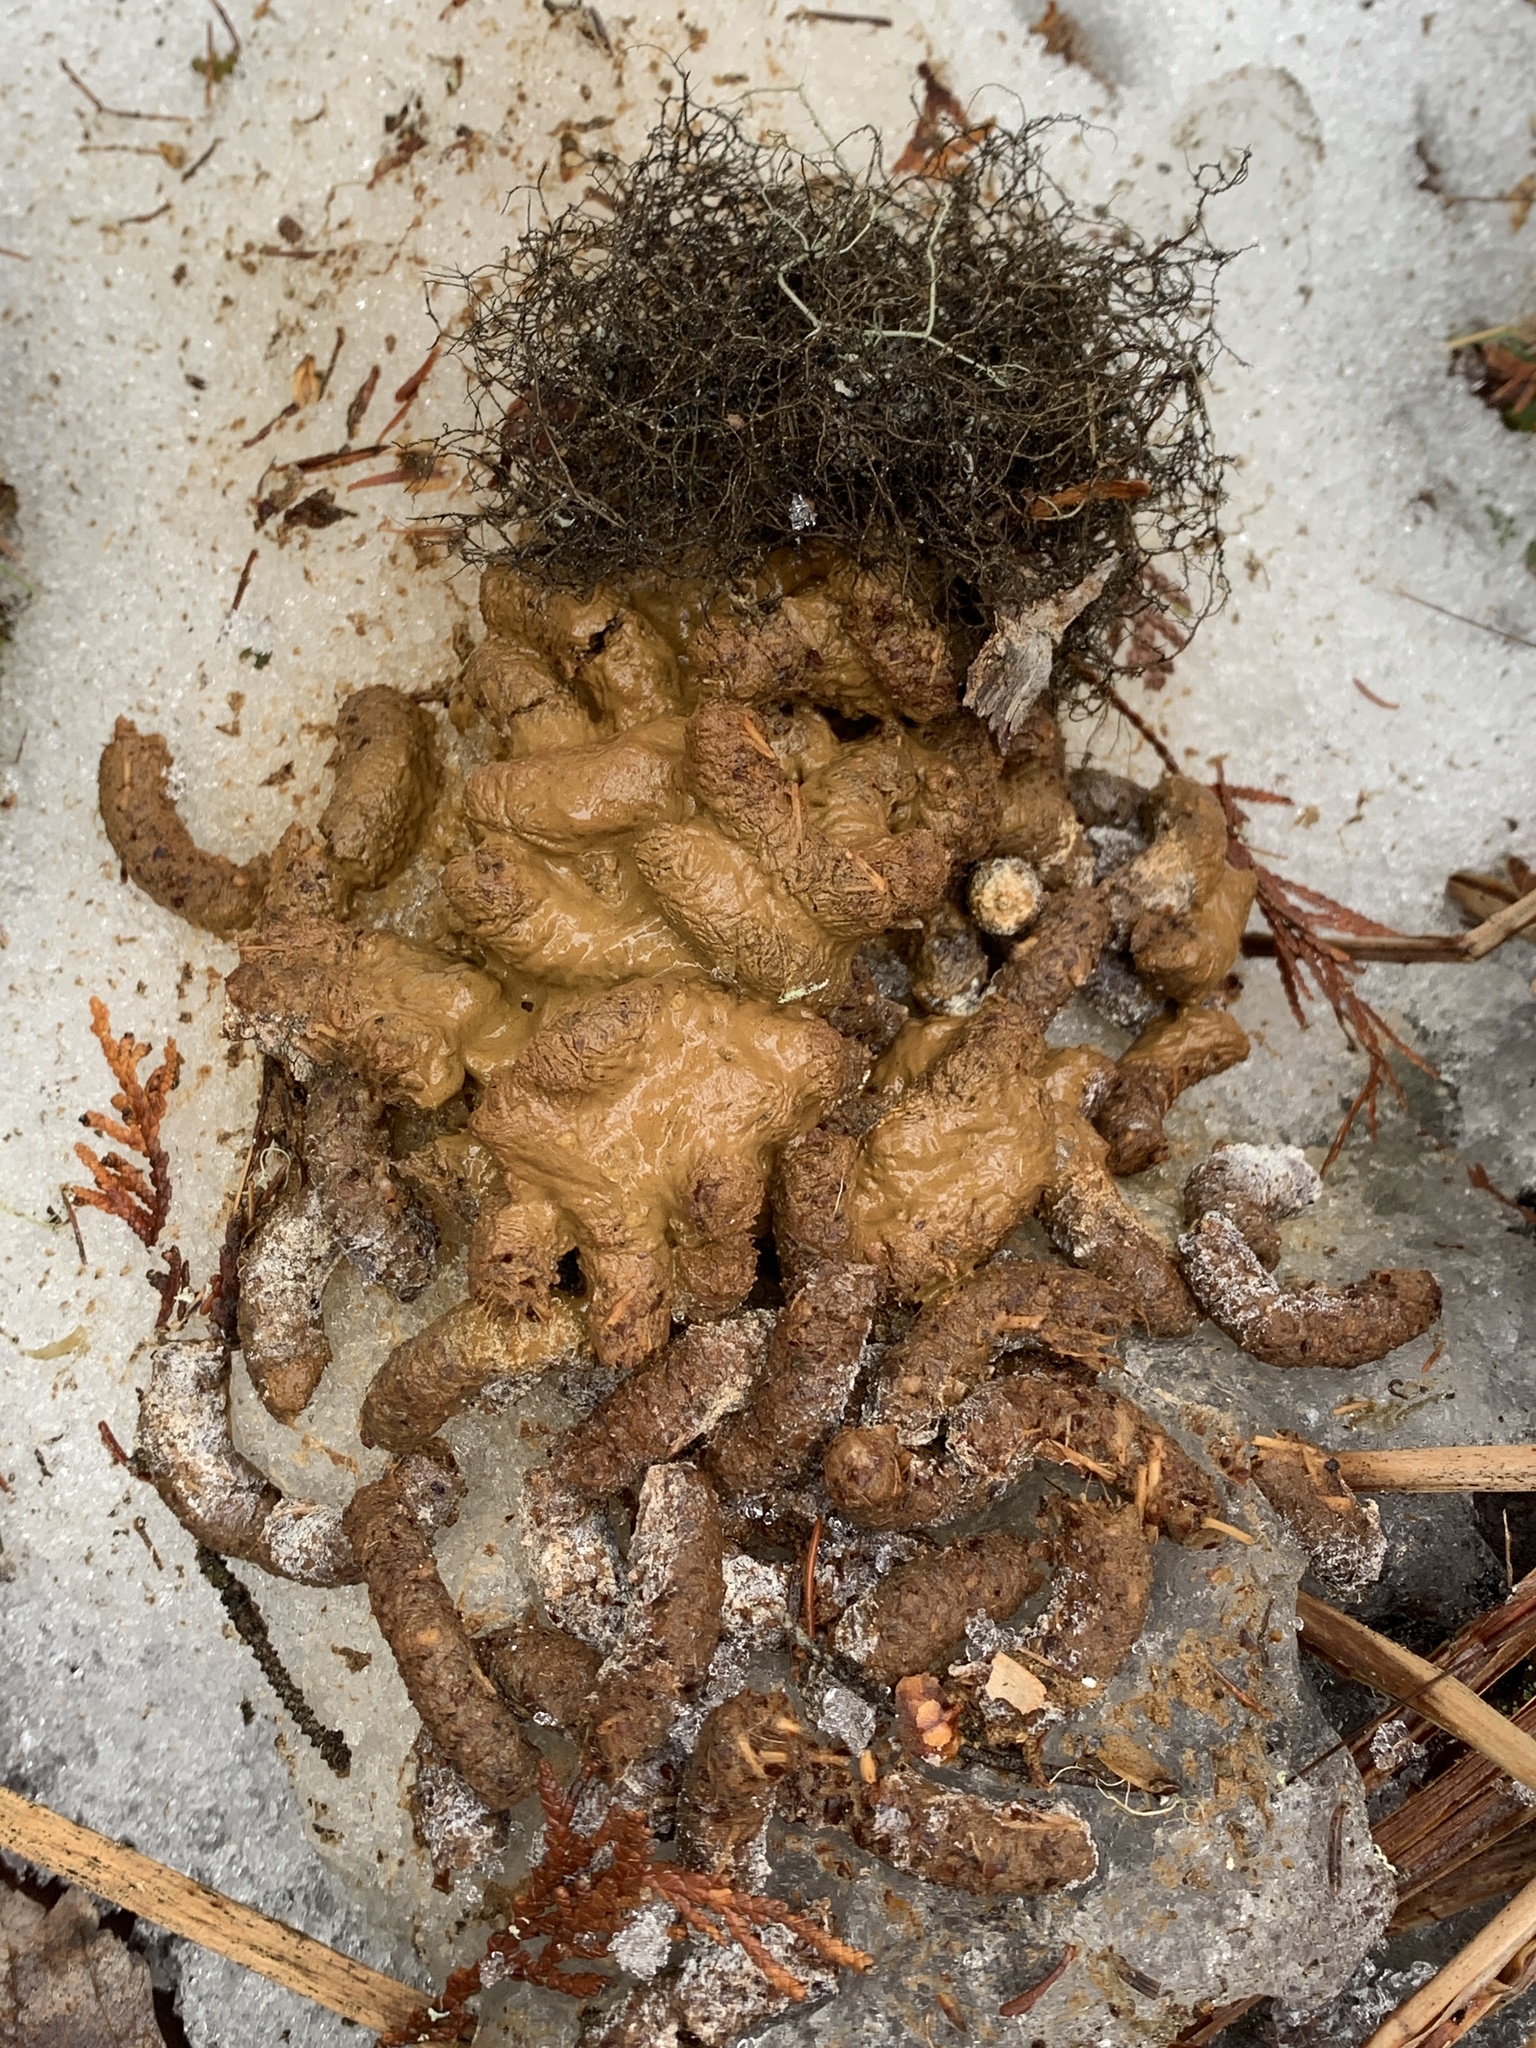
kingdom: Animalia
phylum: Chordata
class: Aves
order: Galliformes
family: Phasianidae
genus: Bonasa
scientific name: Bonasa umbellus
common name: Ruffed grouse
